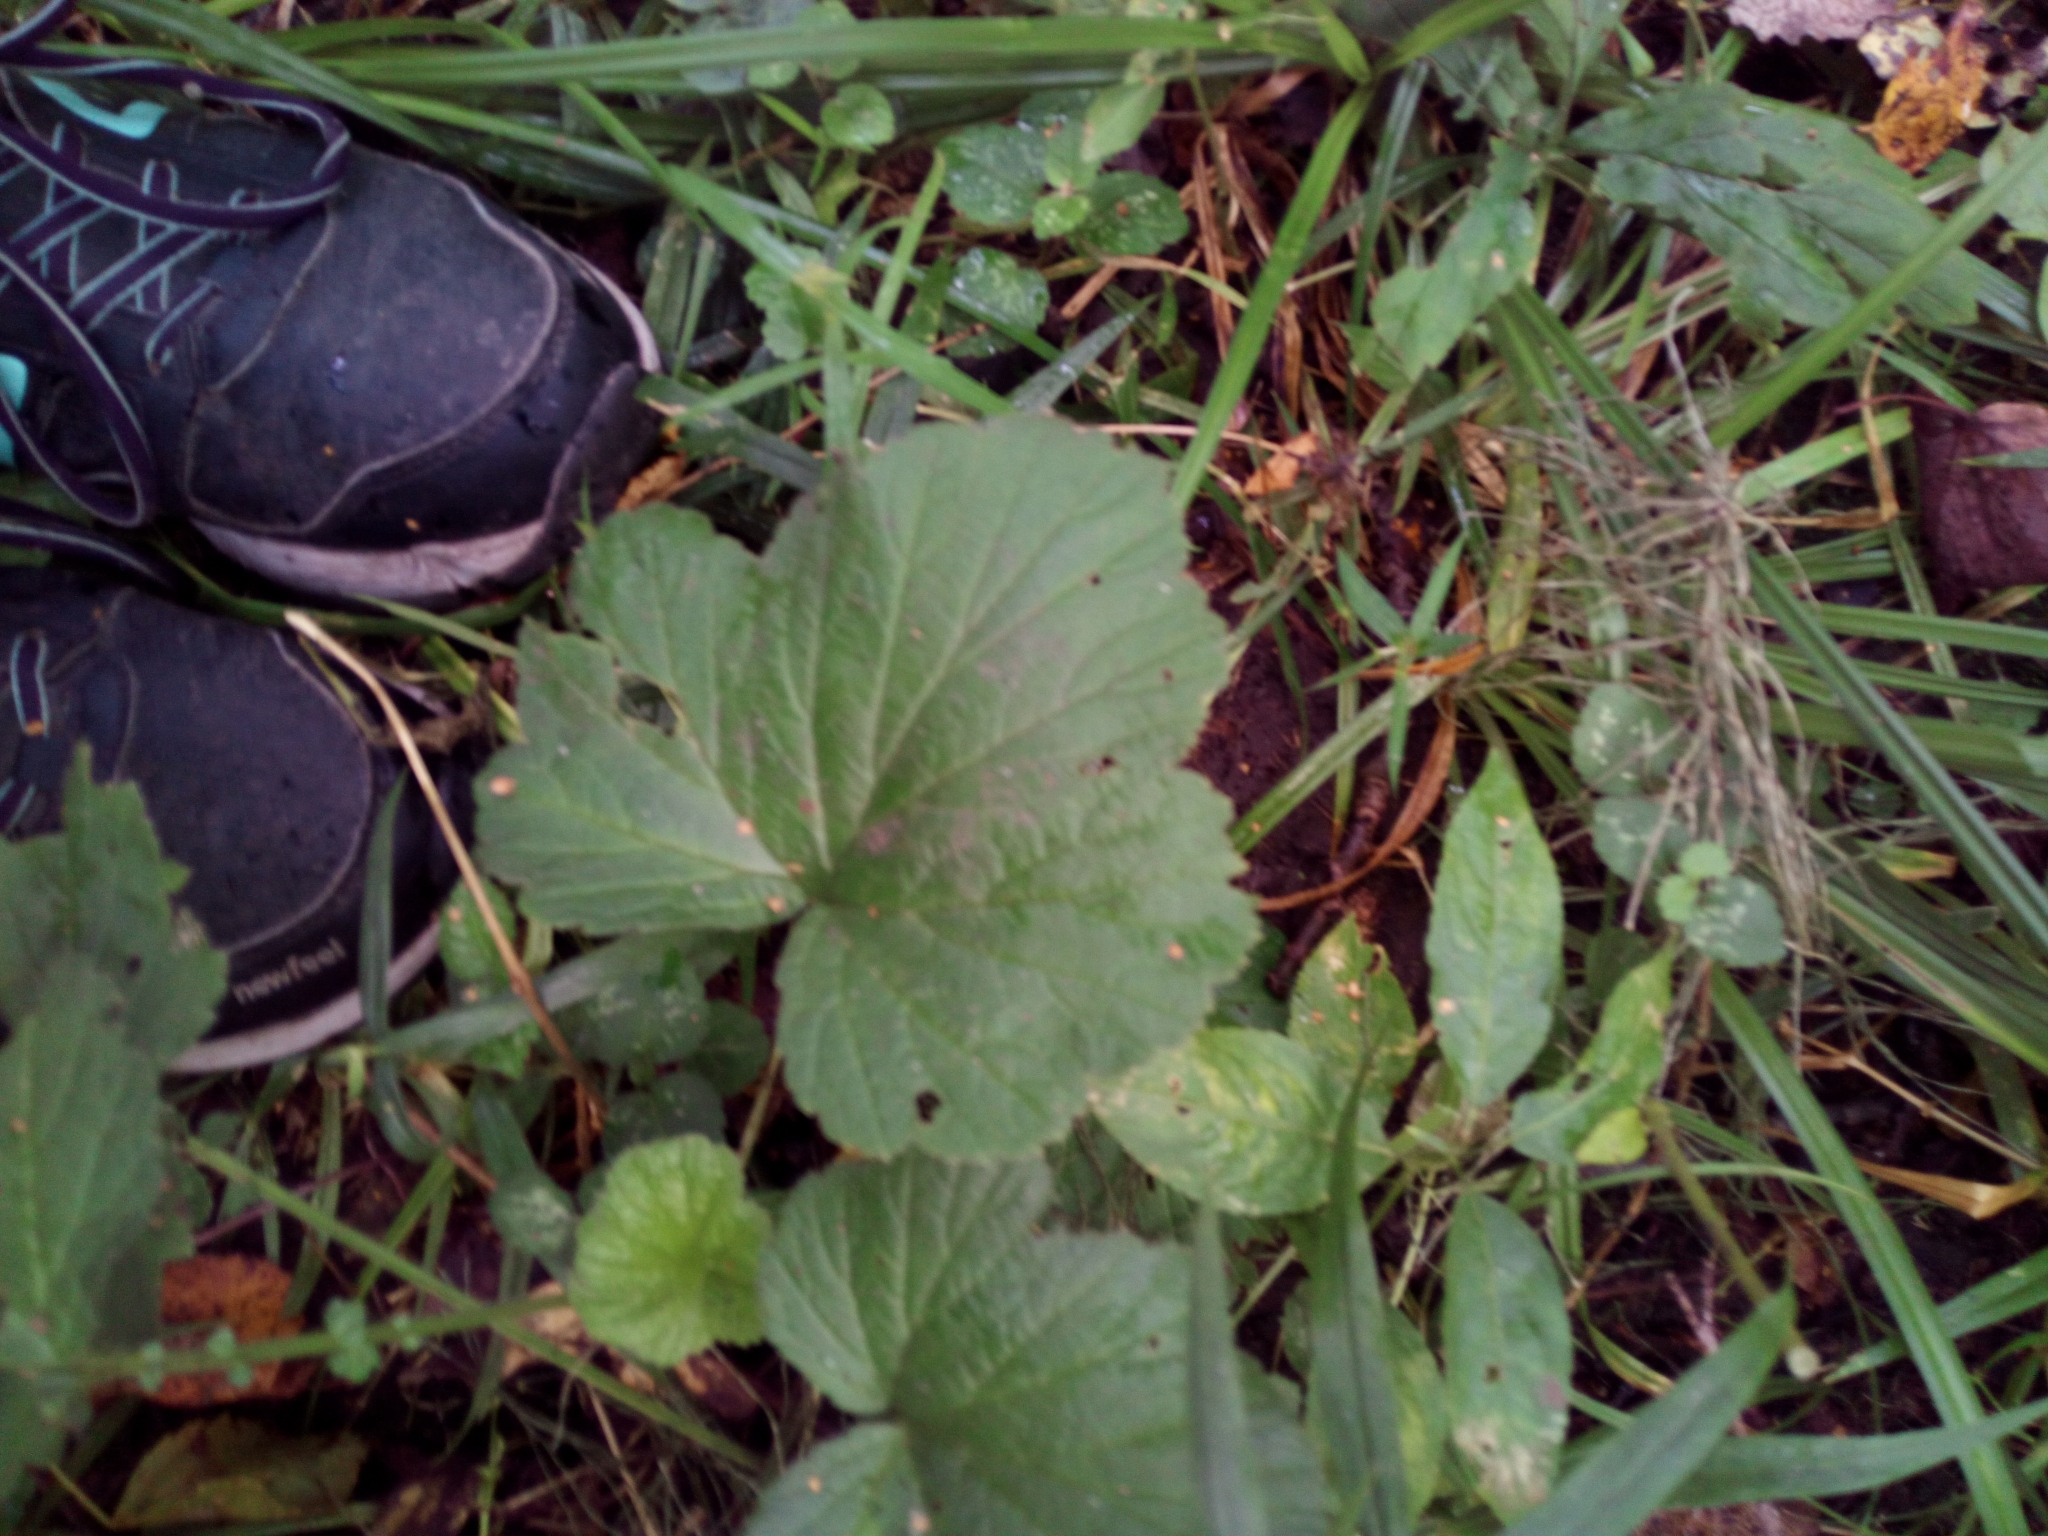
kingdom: Plantae
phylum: Tracheophyta
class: Magnoliopsida
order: Rosales
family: Rosaceae
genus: Geum
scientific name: Geum
